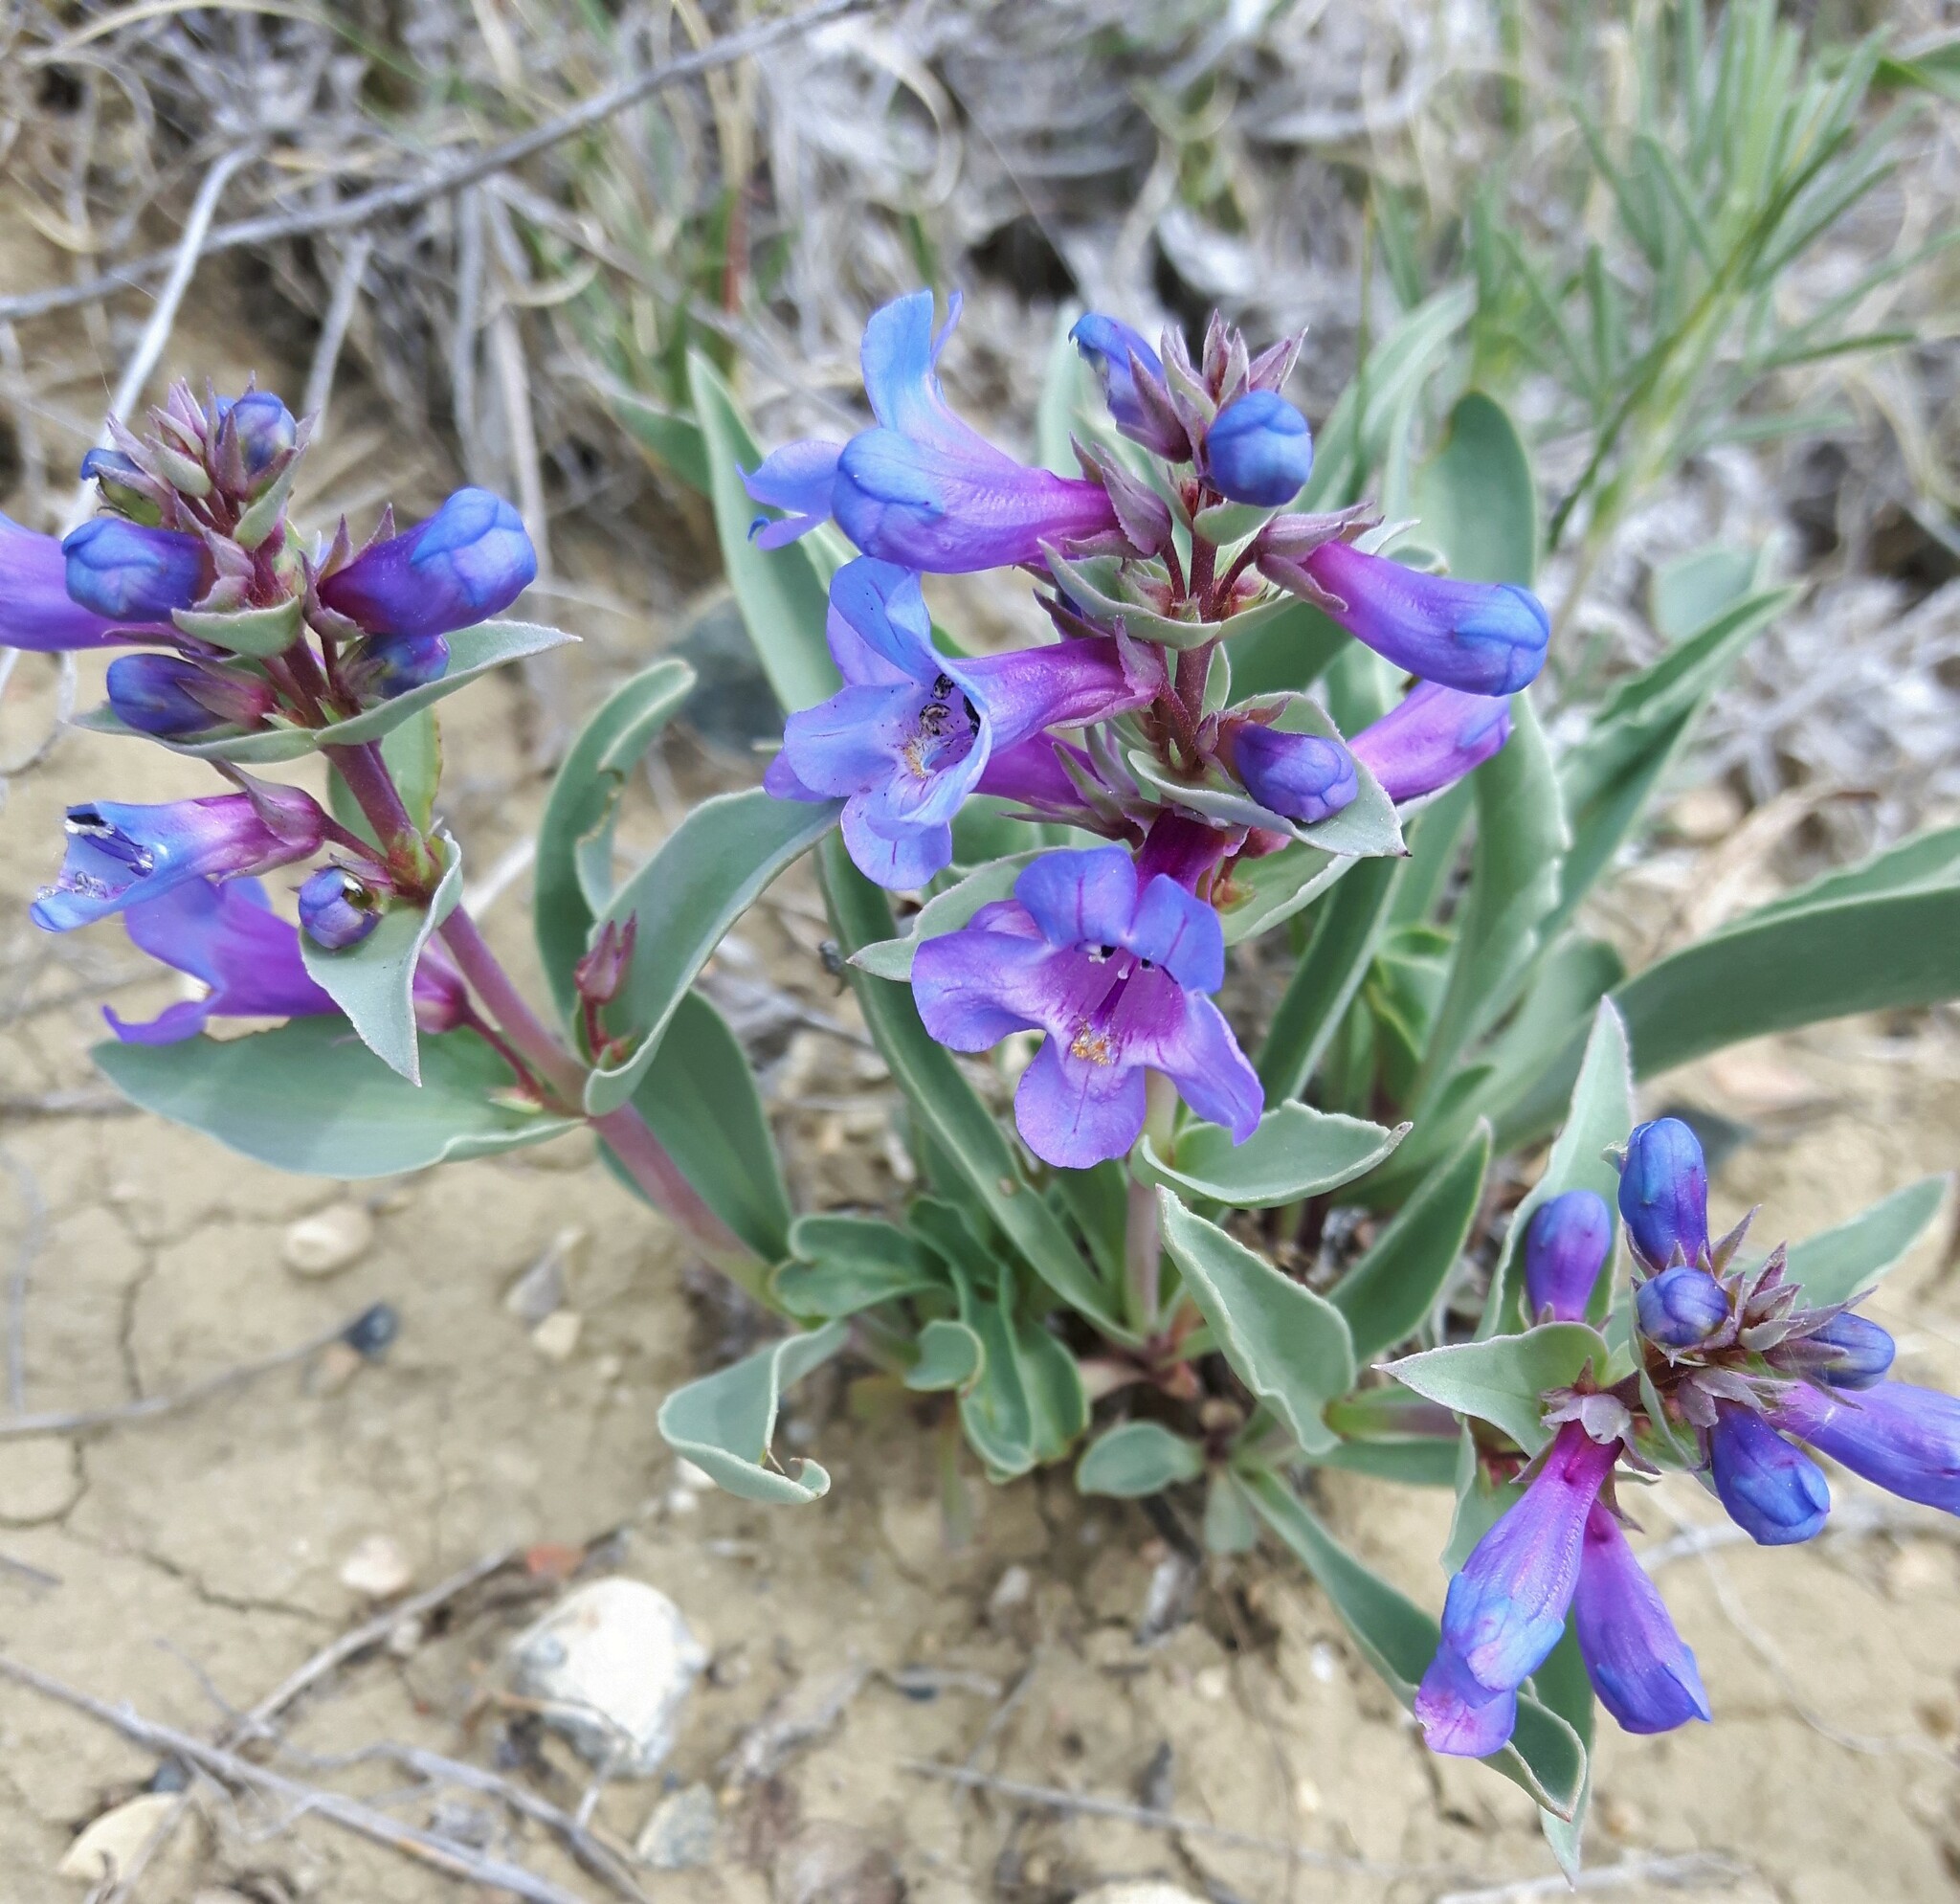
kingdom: Plantae
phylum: Tracheophyta
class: Magnoliopsida
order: Lamiales
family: Plantaginaceae
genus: Penstemon
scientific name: Penstemon nitidus
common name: Shining penstemon
